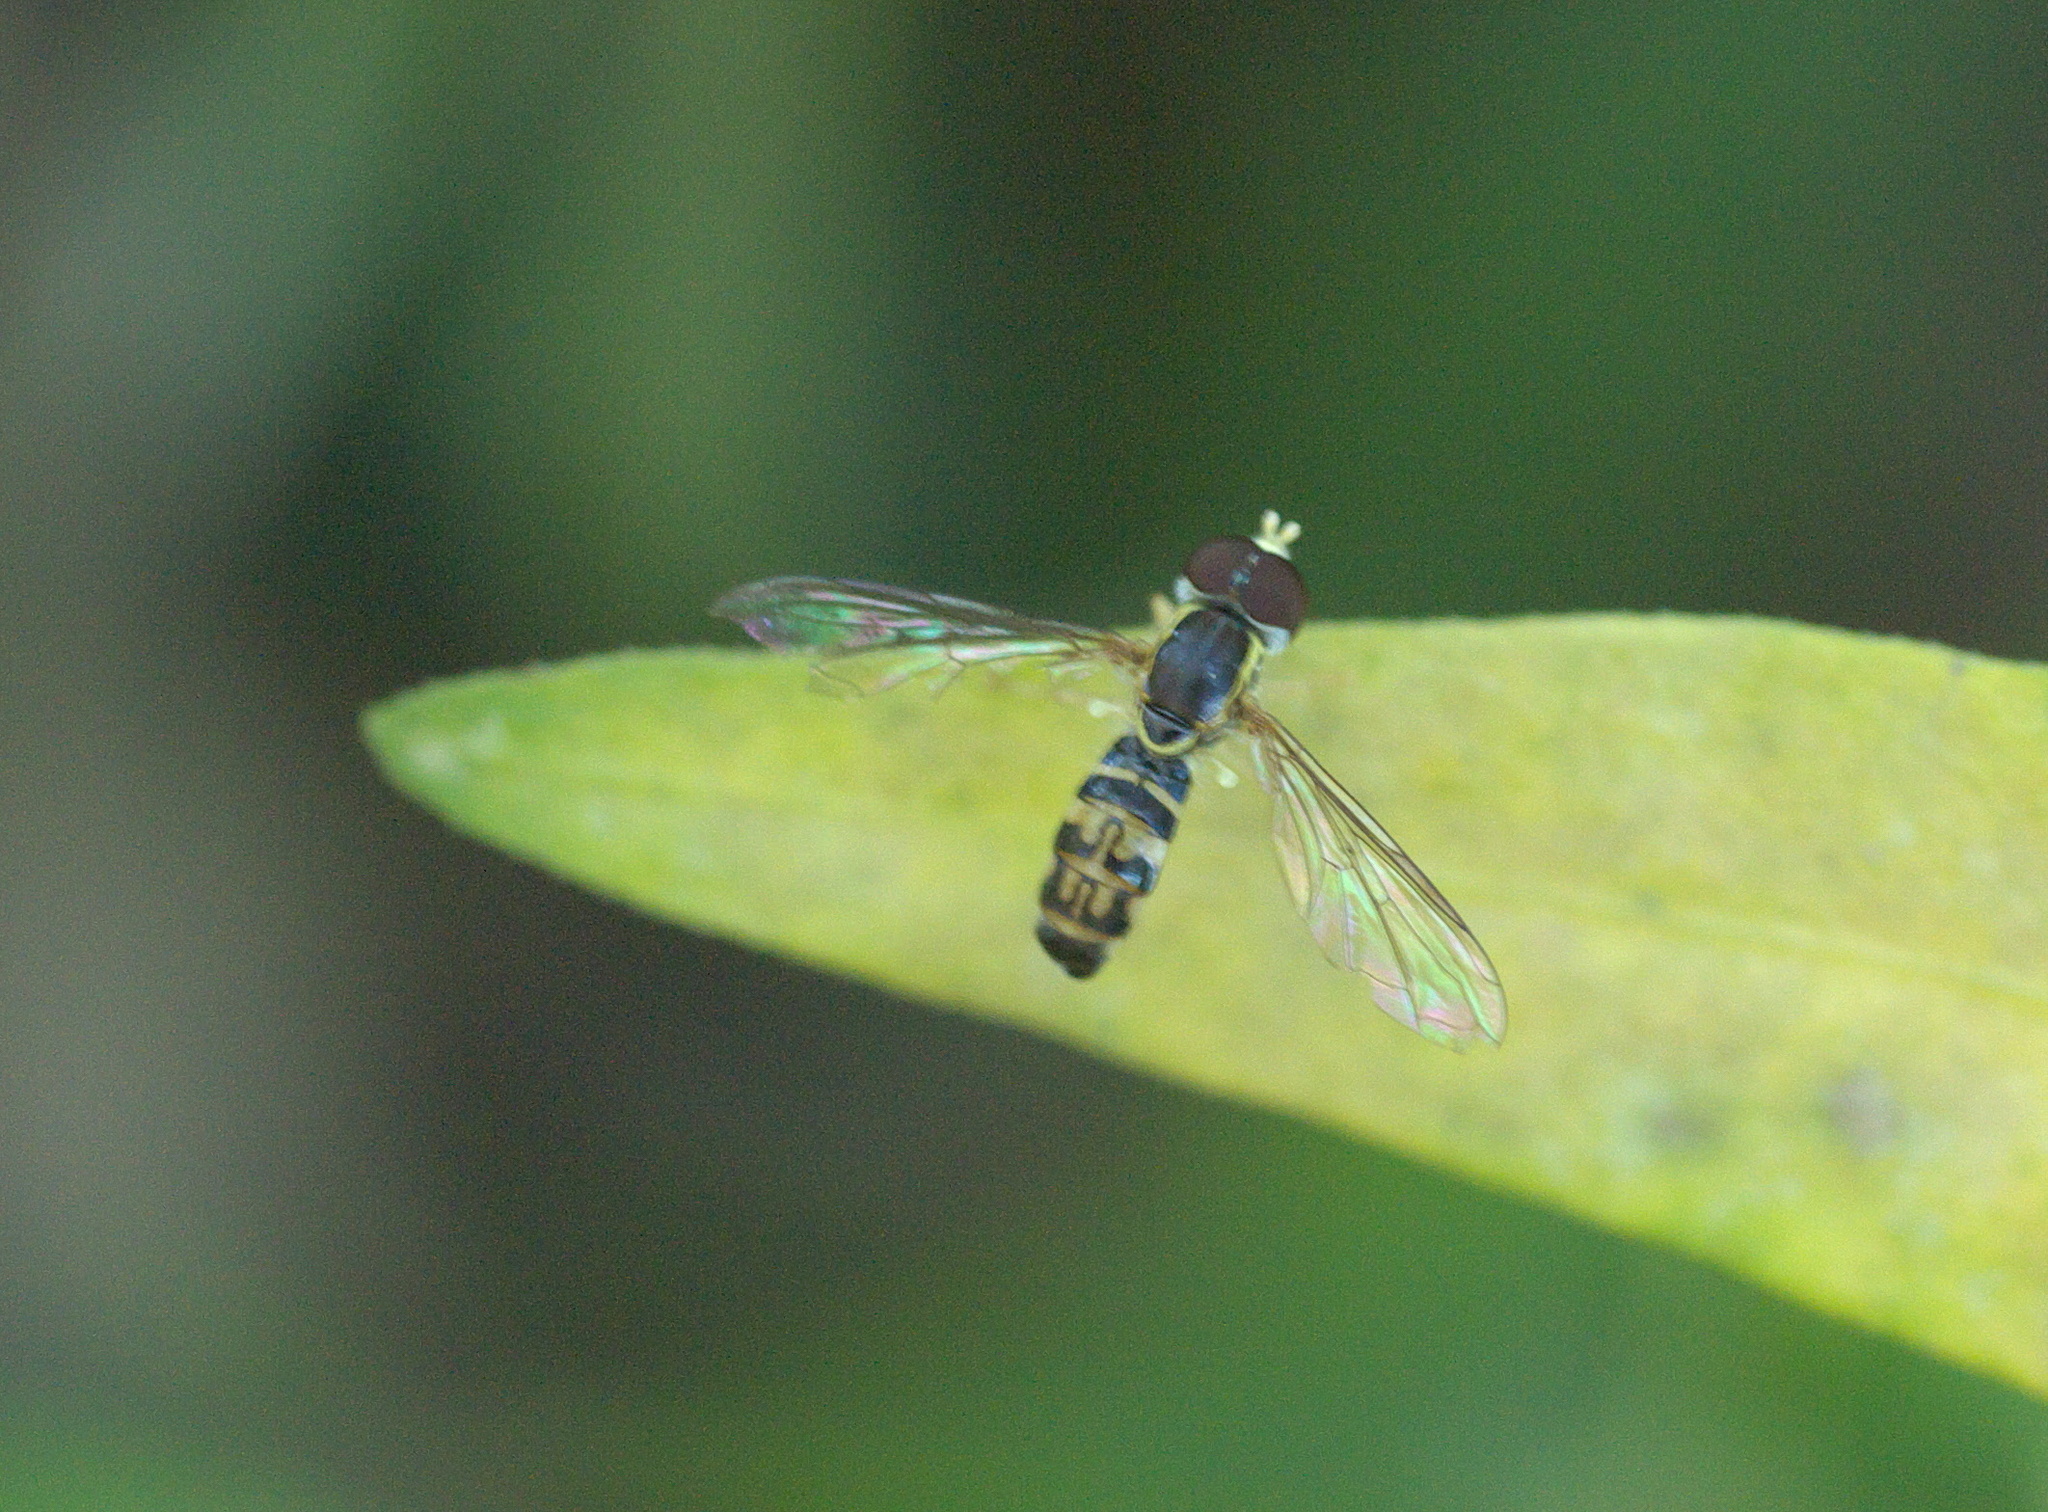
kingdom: Animalia
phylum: Arthropoda
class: Insecta
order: Diptera
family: Syrphidae
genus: Toxomerus
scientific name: Toxomerus geminatus
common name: Eastern calligrapher
